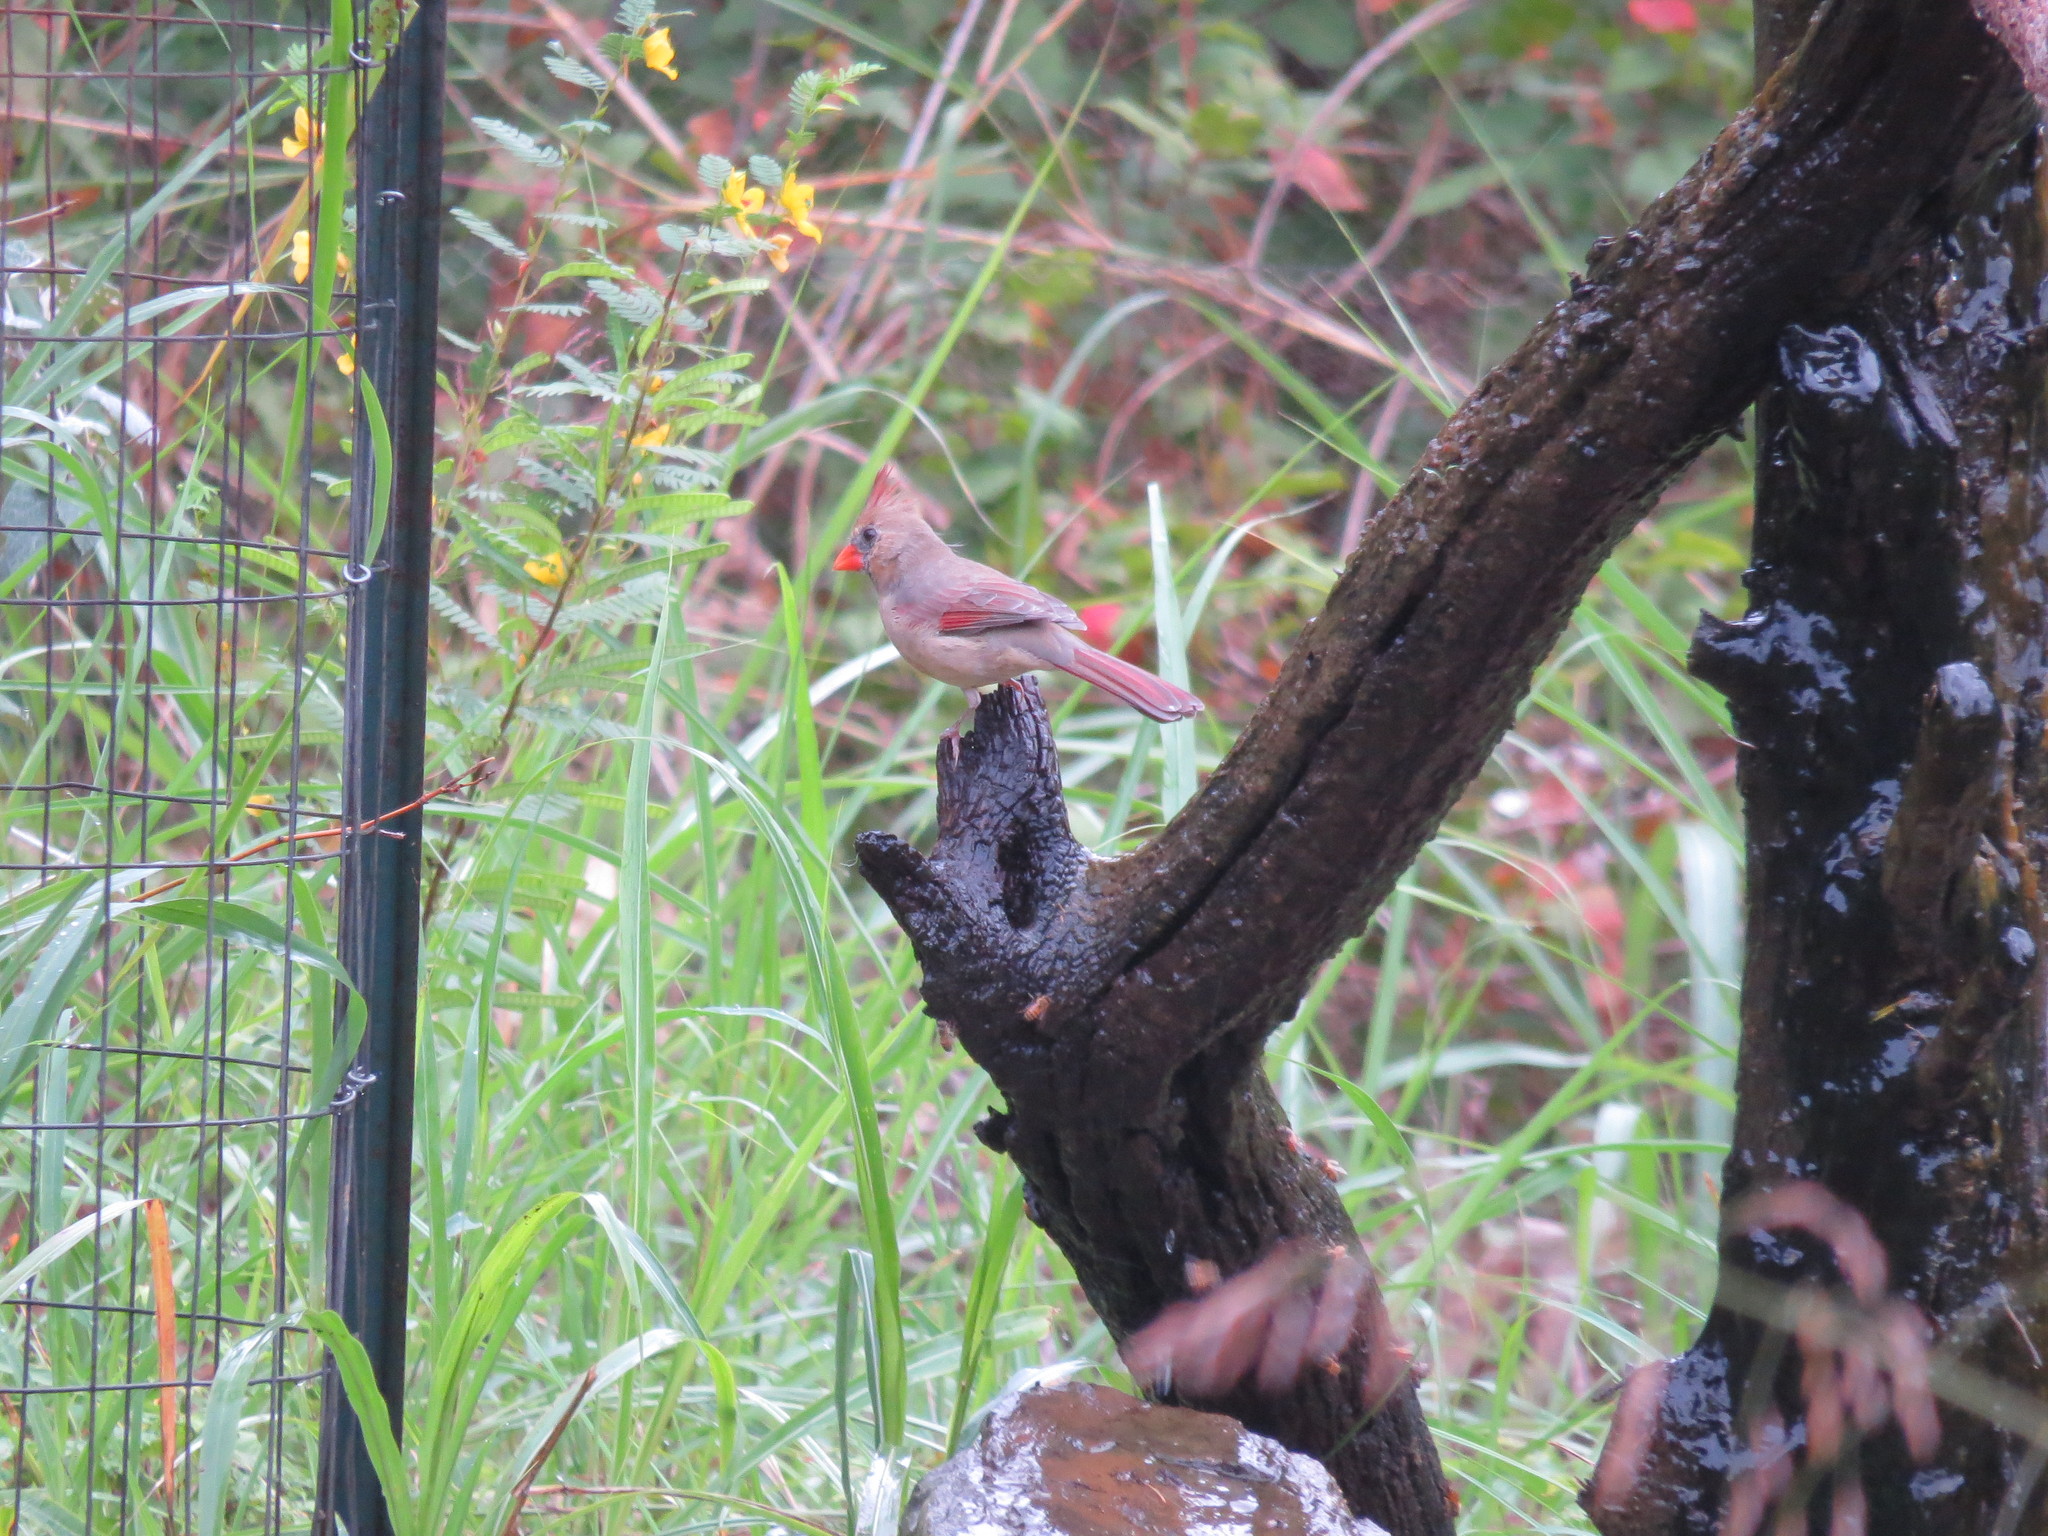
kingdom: Animalia
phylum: Chordata
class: Aves
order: Passeriformes
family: Cardinalidae
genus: Cardinalis
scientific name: Cardinalis cardinalis
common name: Northern cardinal
